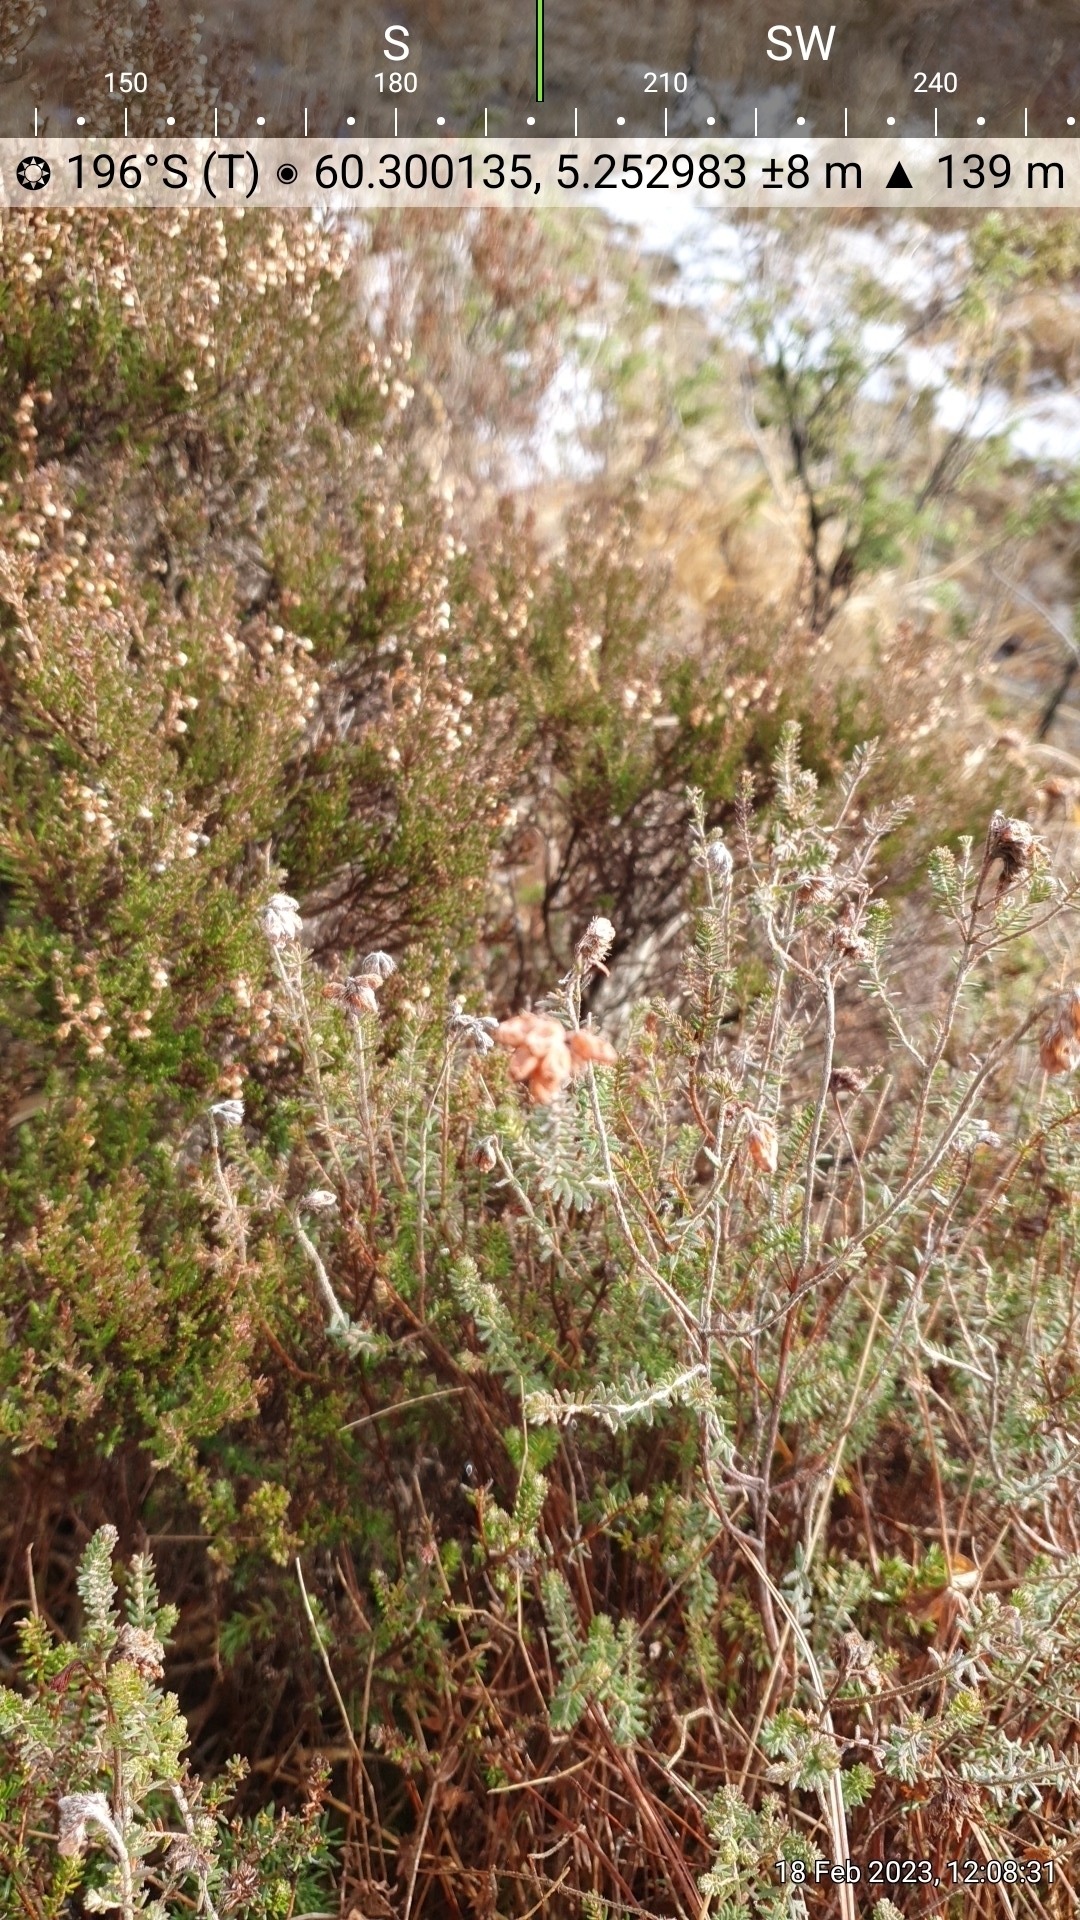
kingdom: Plantae
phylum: Tracheophyta
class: Magnoliopsida
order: Ericales
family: Ericaceae
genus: Erica
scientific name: Erica tetralix
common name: Cross-leaved heath
